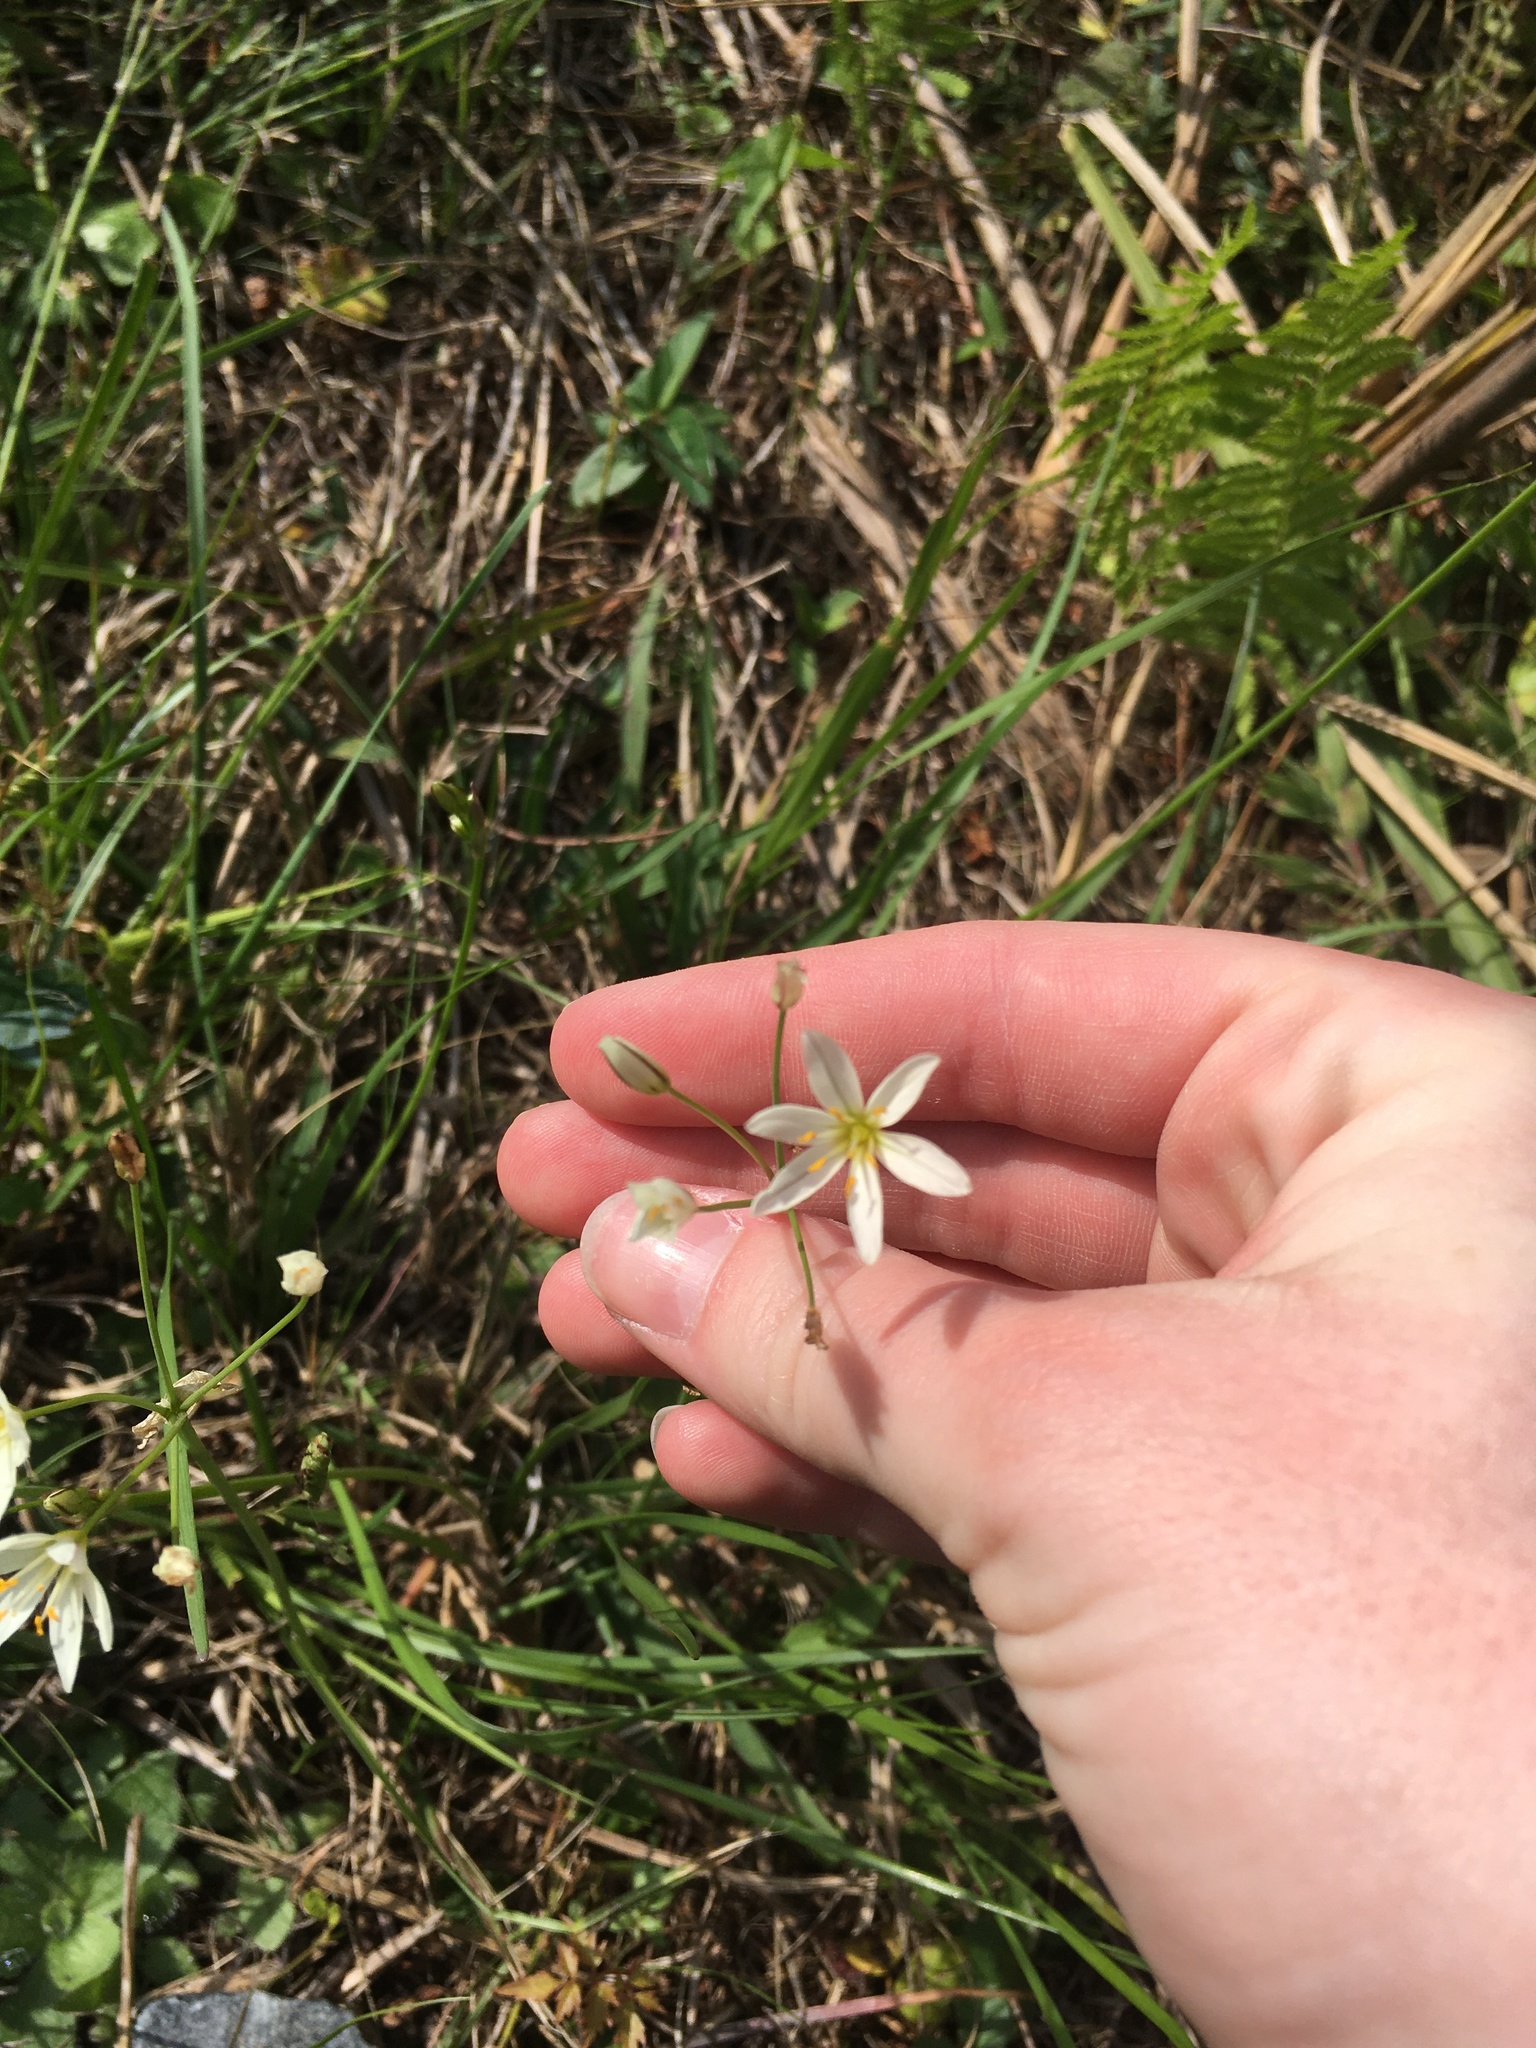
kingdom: Plantae
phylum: Tracheophyta
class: Liliopsida
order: Asparagales
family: Amaryllidaceae
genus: Nothoscordum
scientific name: Nothoscordum bivalve
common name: Crow-poison
